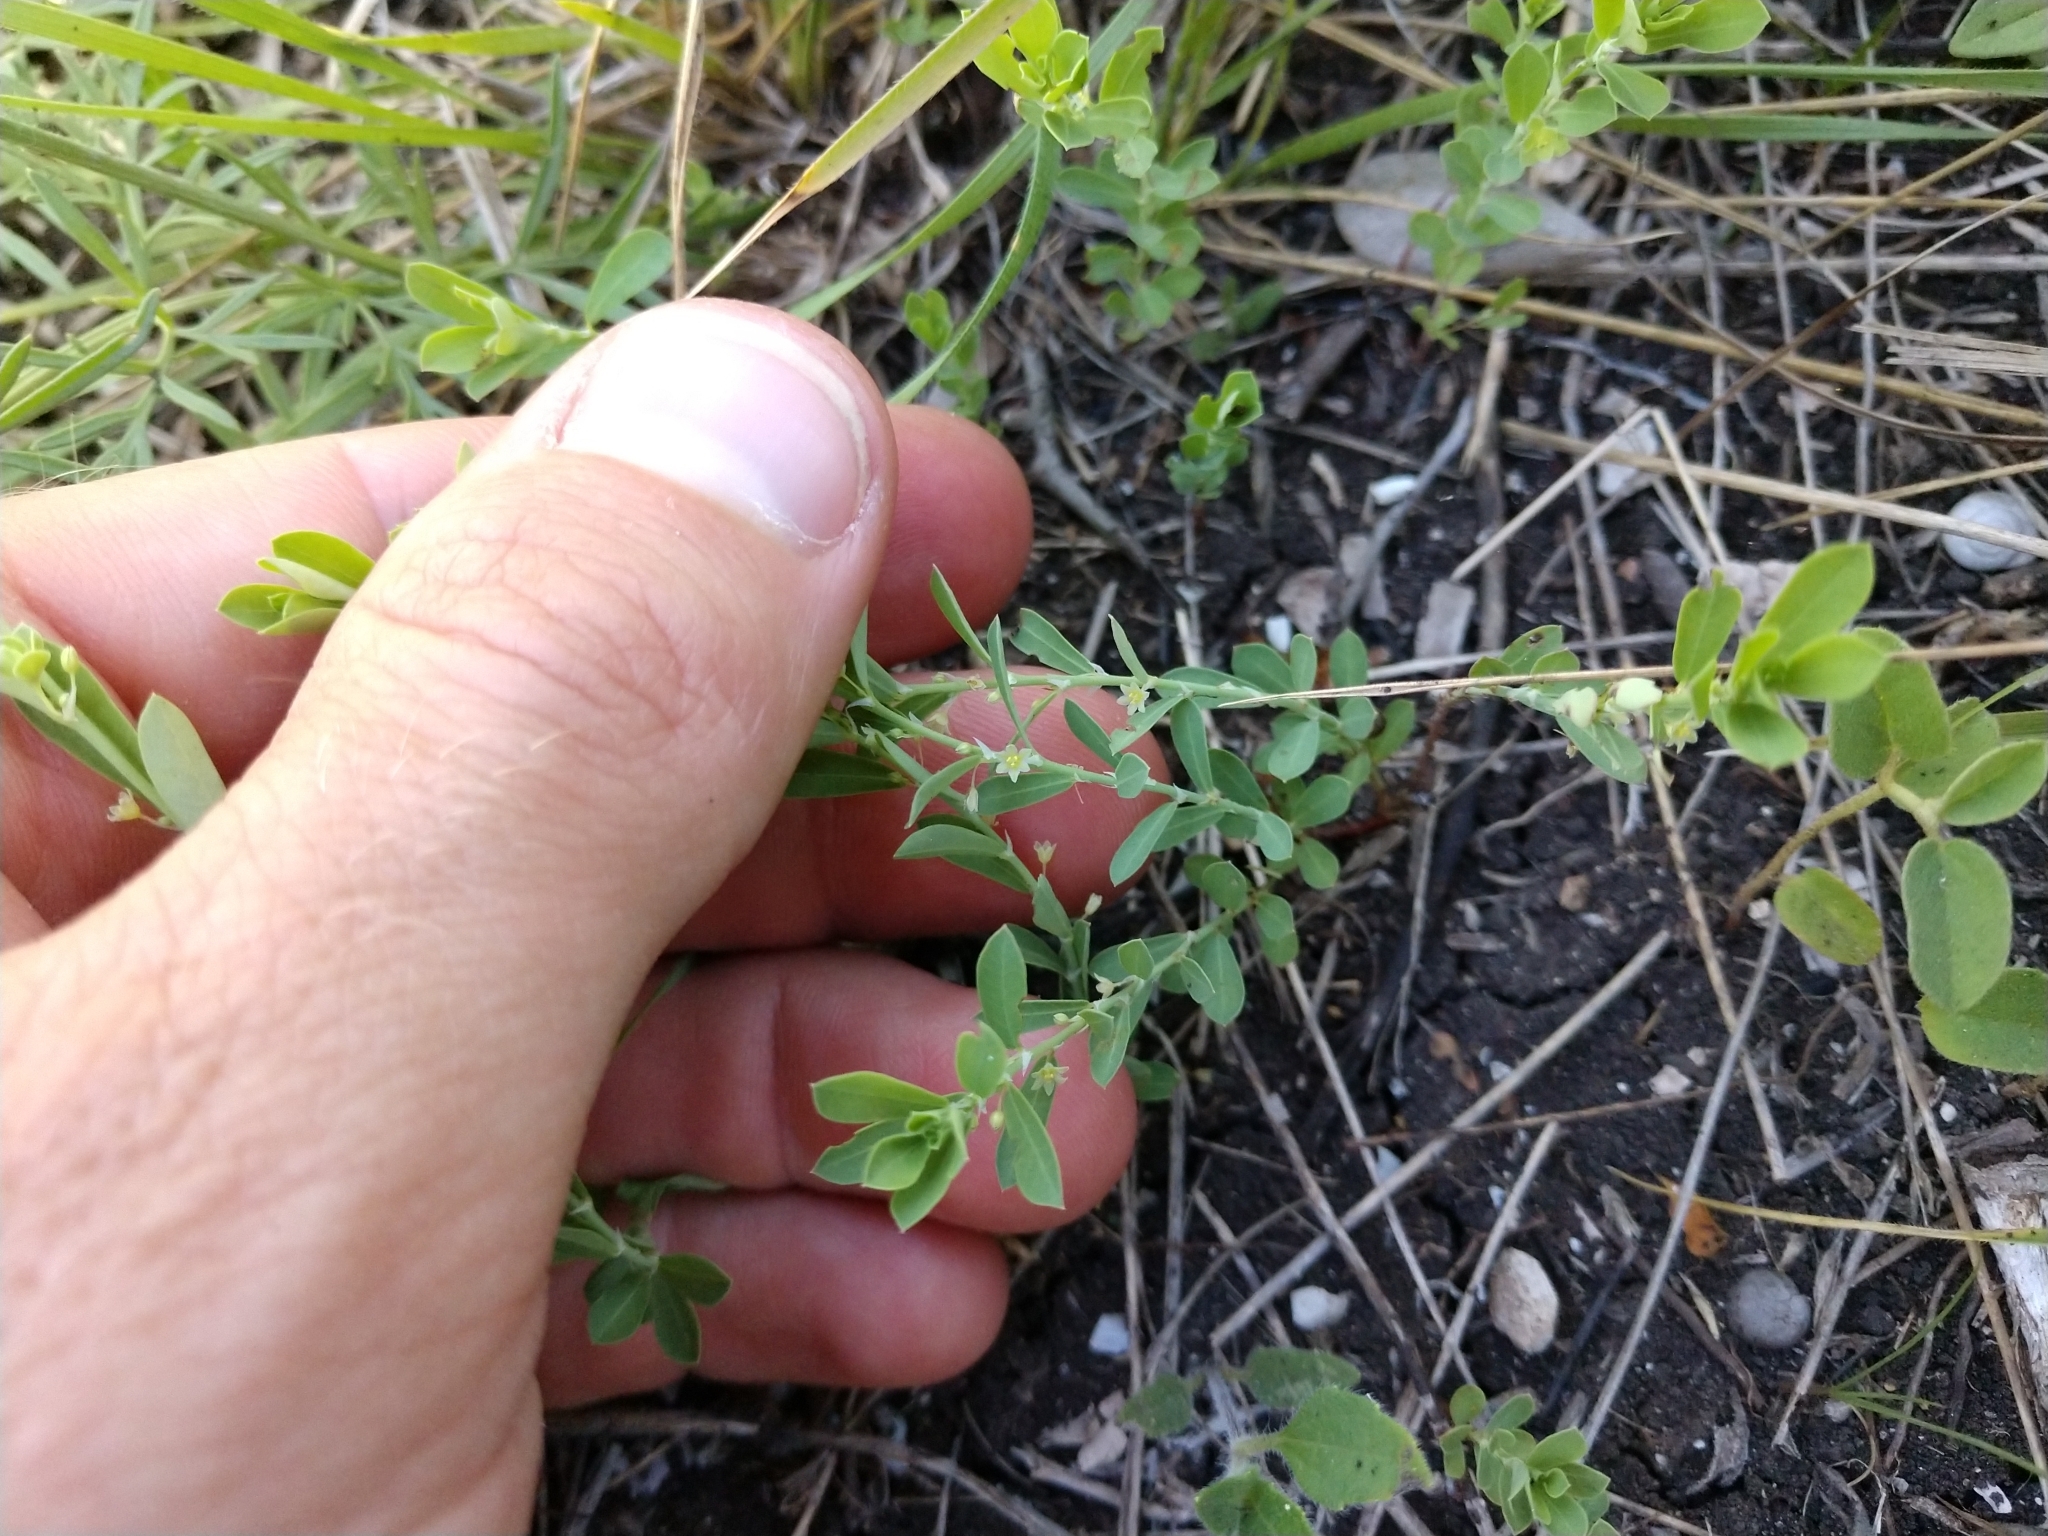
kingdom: Plantae
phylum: Tracheophyta
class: Magnoliopsida
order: Malpighiales
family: Phyllanthaceae
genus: Phyllanthus
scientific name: Phyllanthus polygonoides
